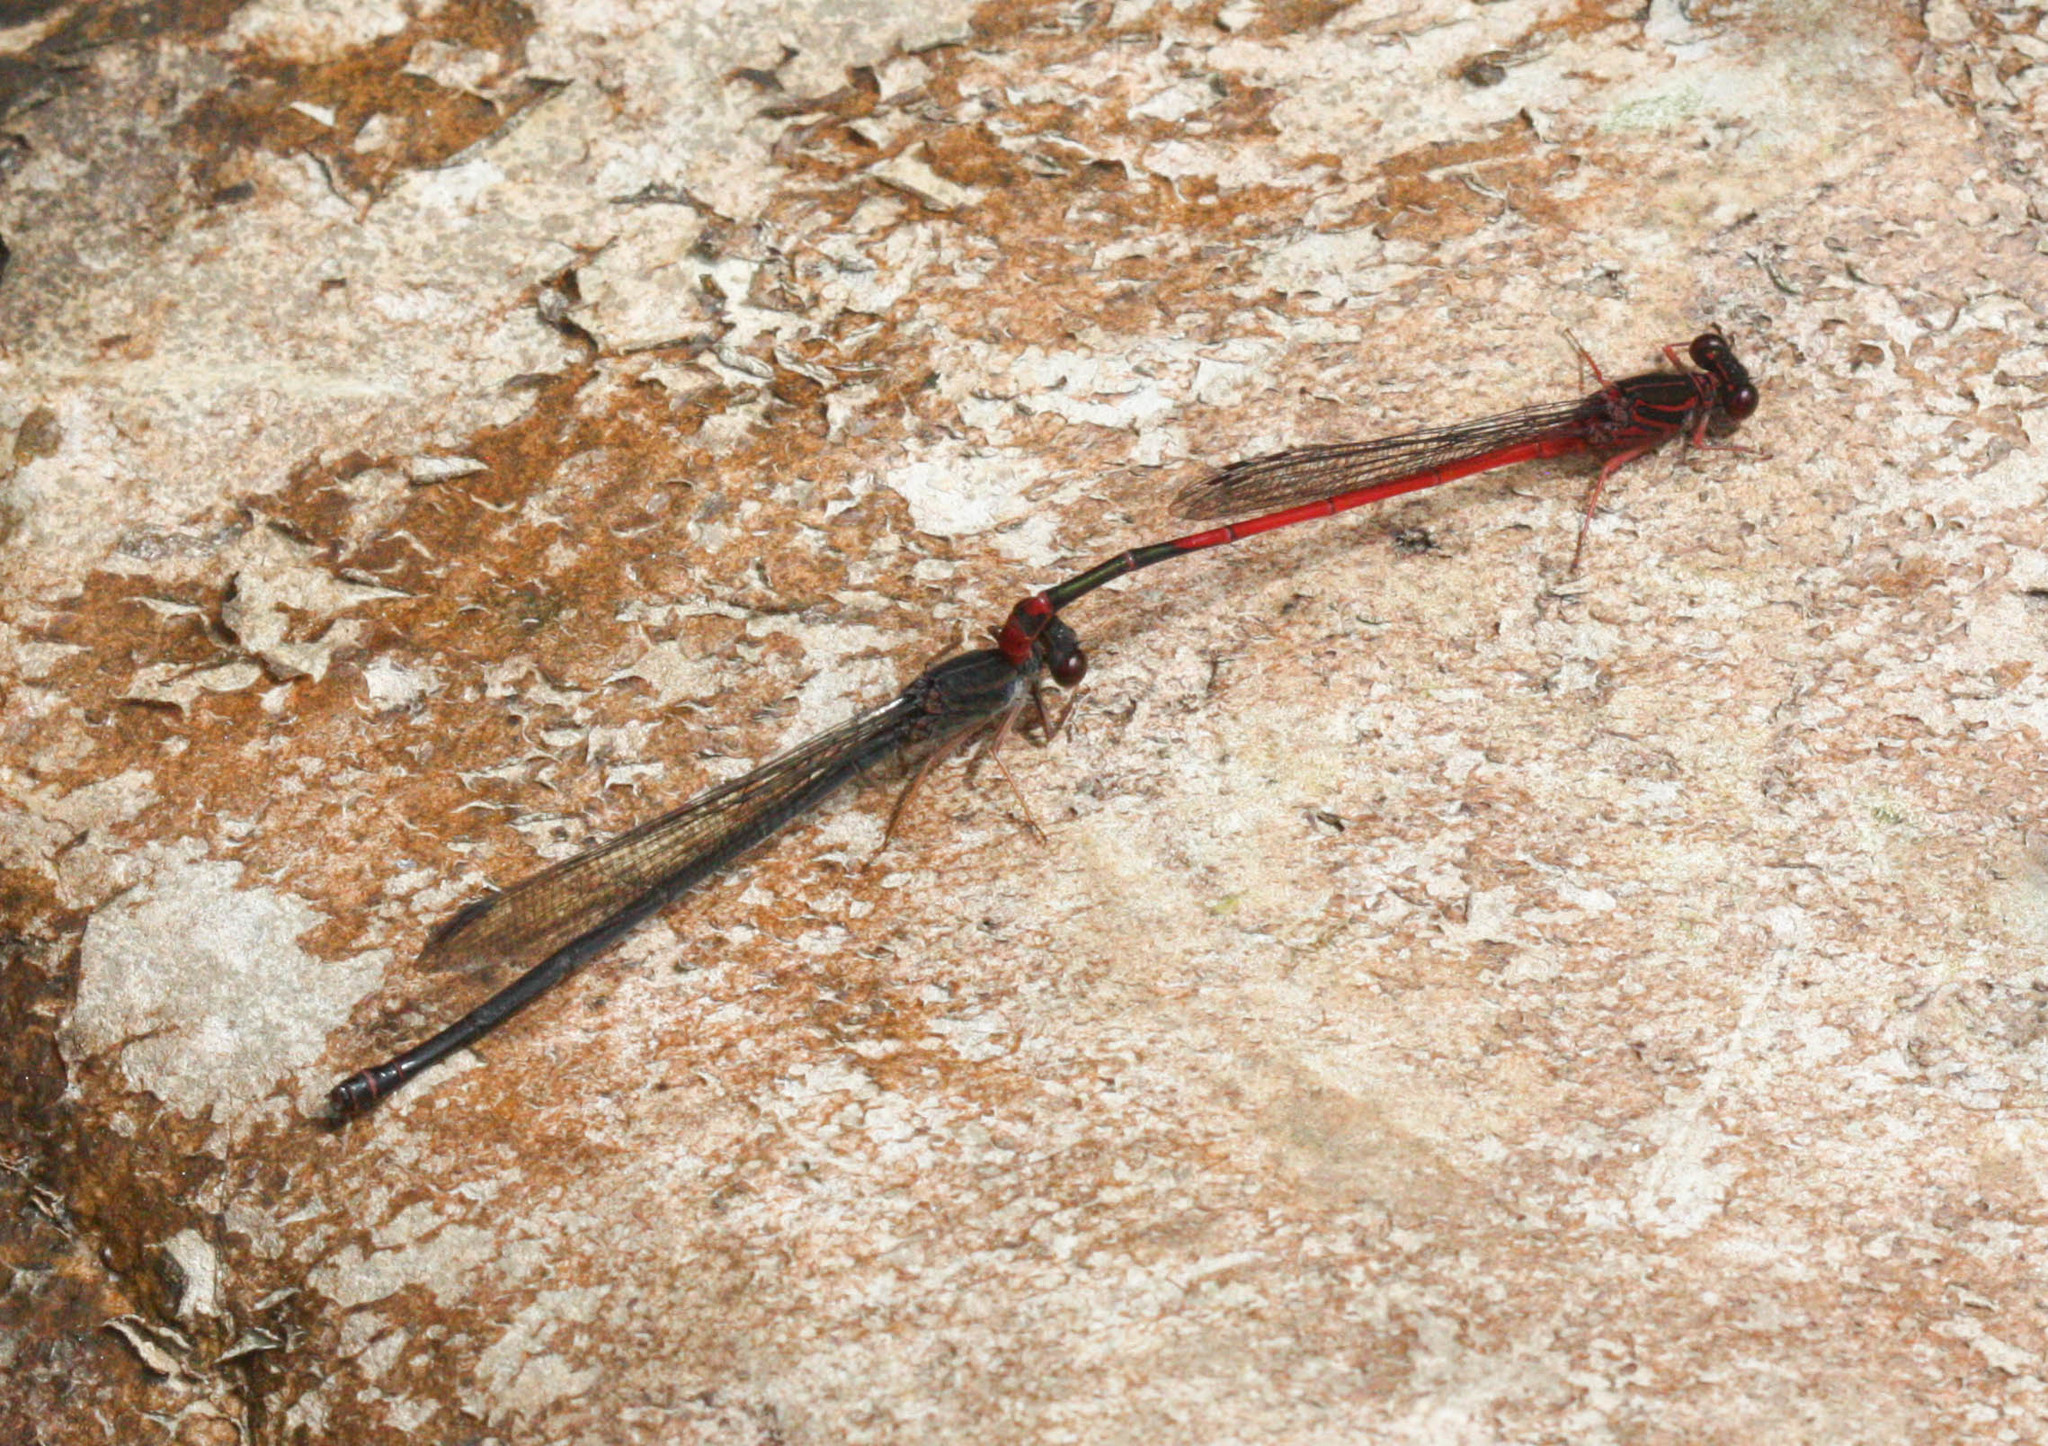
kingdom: Animalia
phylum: Arthropoda
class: Insecta
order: Odonata
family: Coenagrionidae
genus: Megalagrion
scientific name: Megalagrion heterogamias
